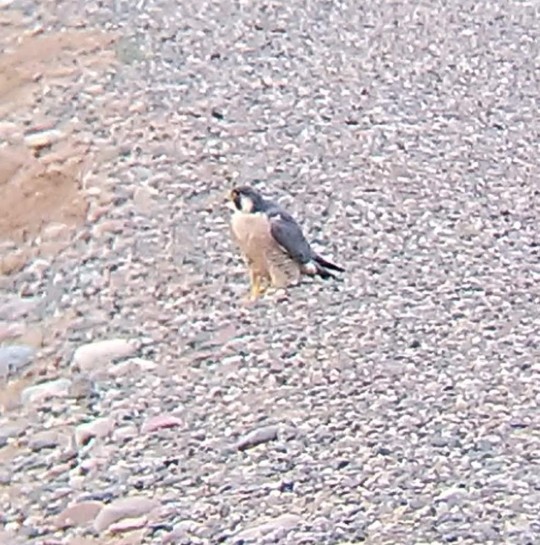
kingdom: Animalia
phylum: Chordata
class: Aves
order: Falconiformes
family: Falconidae
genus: Falco
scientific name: Falco peregrinus
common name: Peregrine falcon
